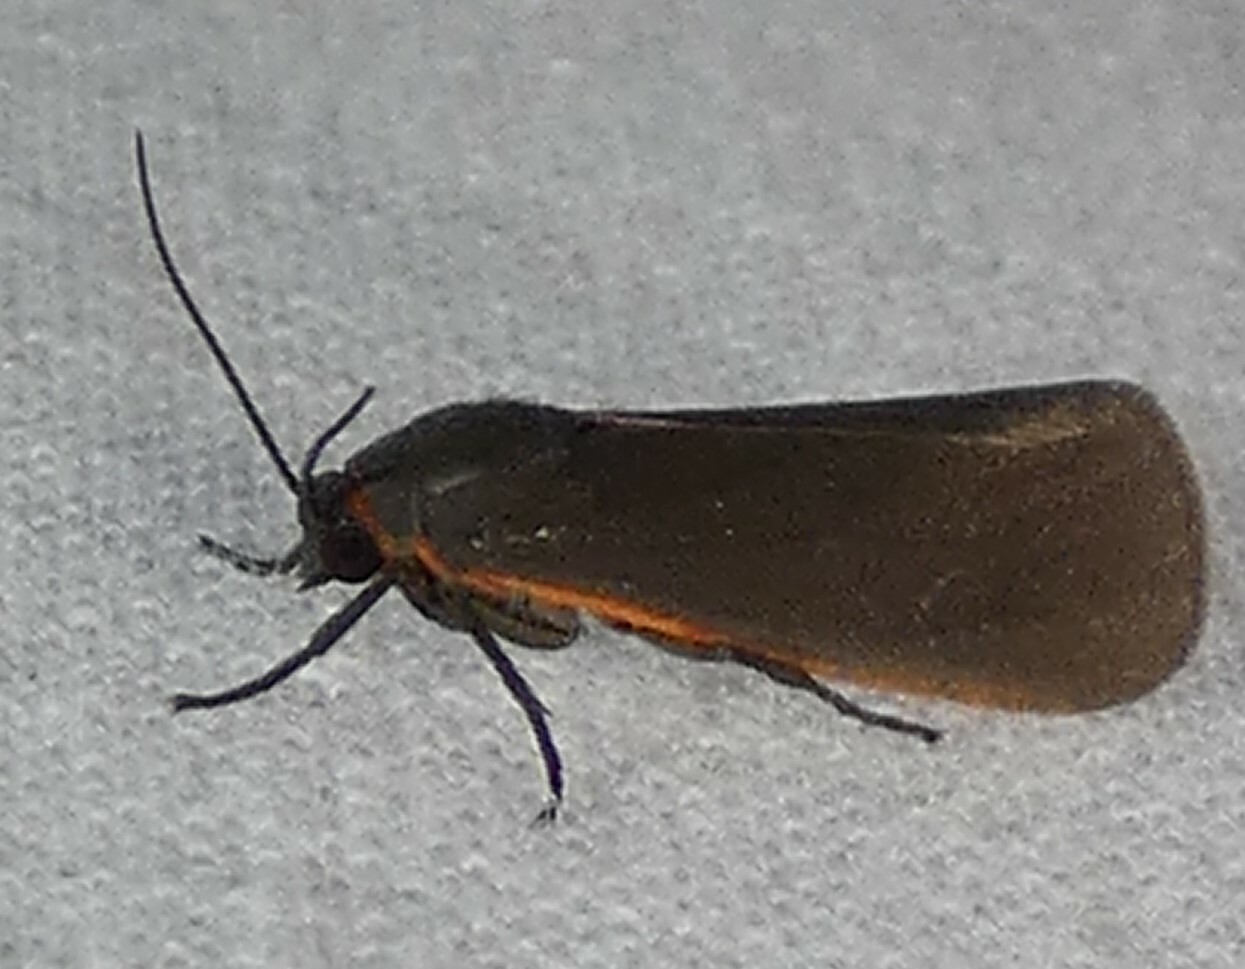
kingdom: Animalia
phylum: Arthropoda
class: Insecta
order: Lepidoptera
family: Erebidae
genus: Virbia
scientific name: Virbia laeta
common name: Joyful holomelina moth
